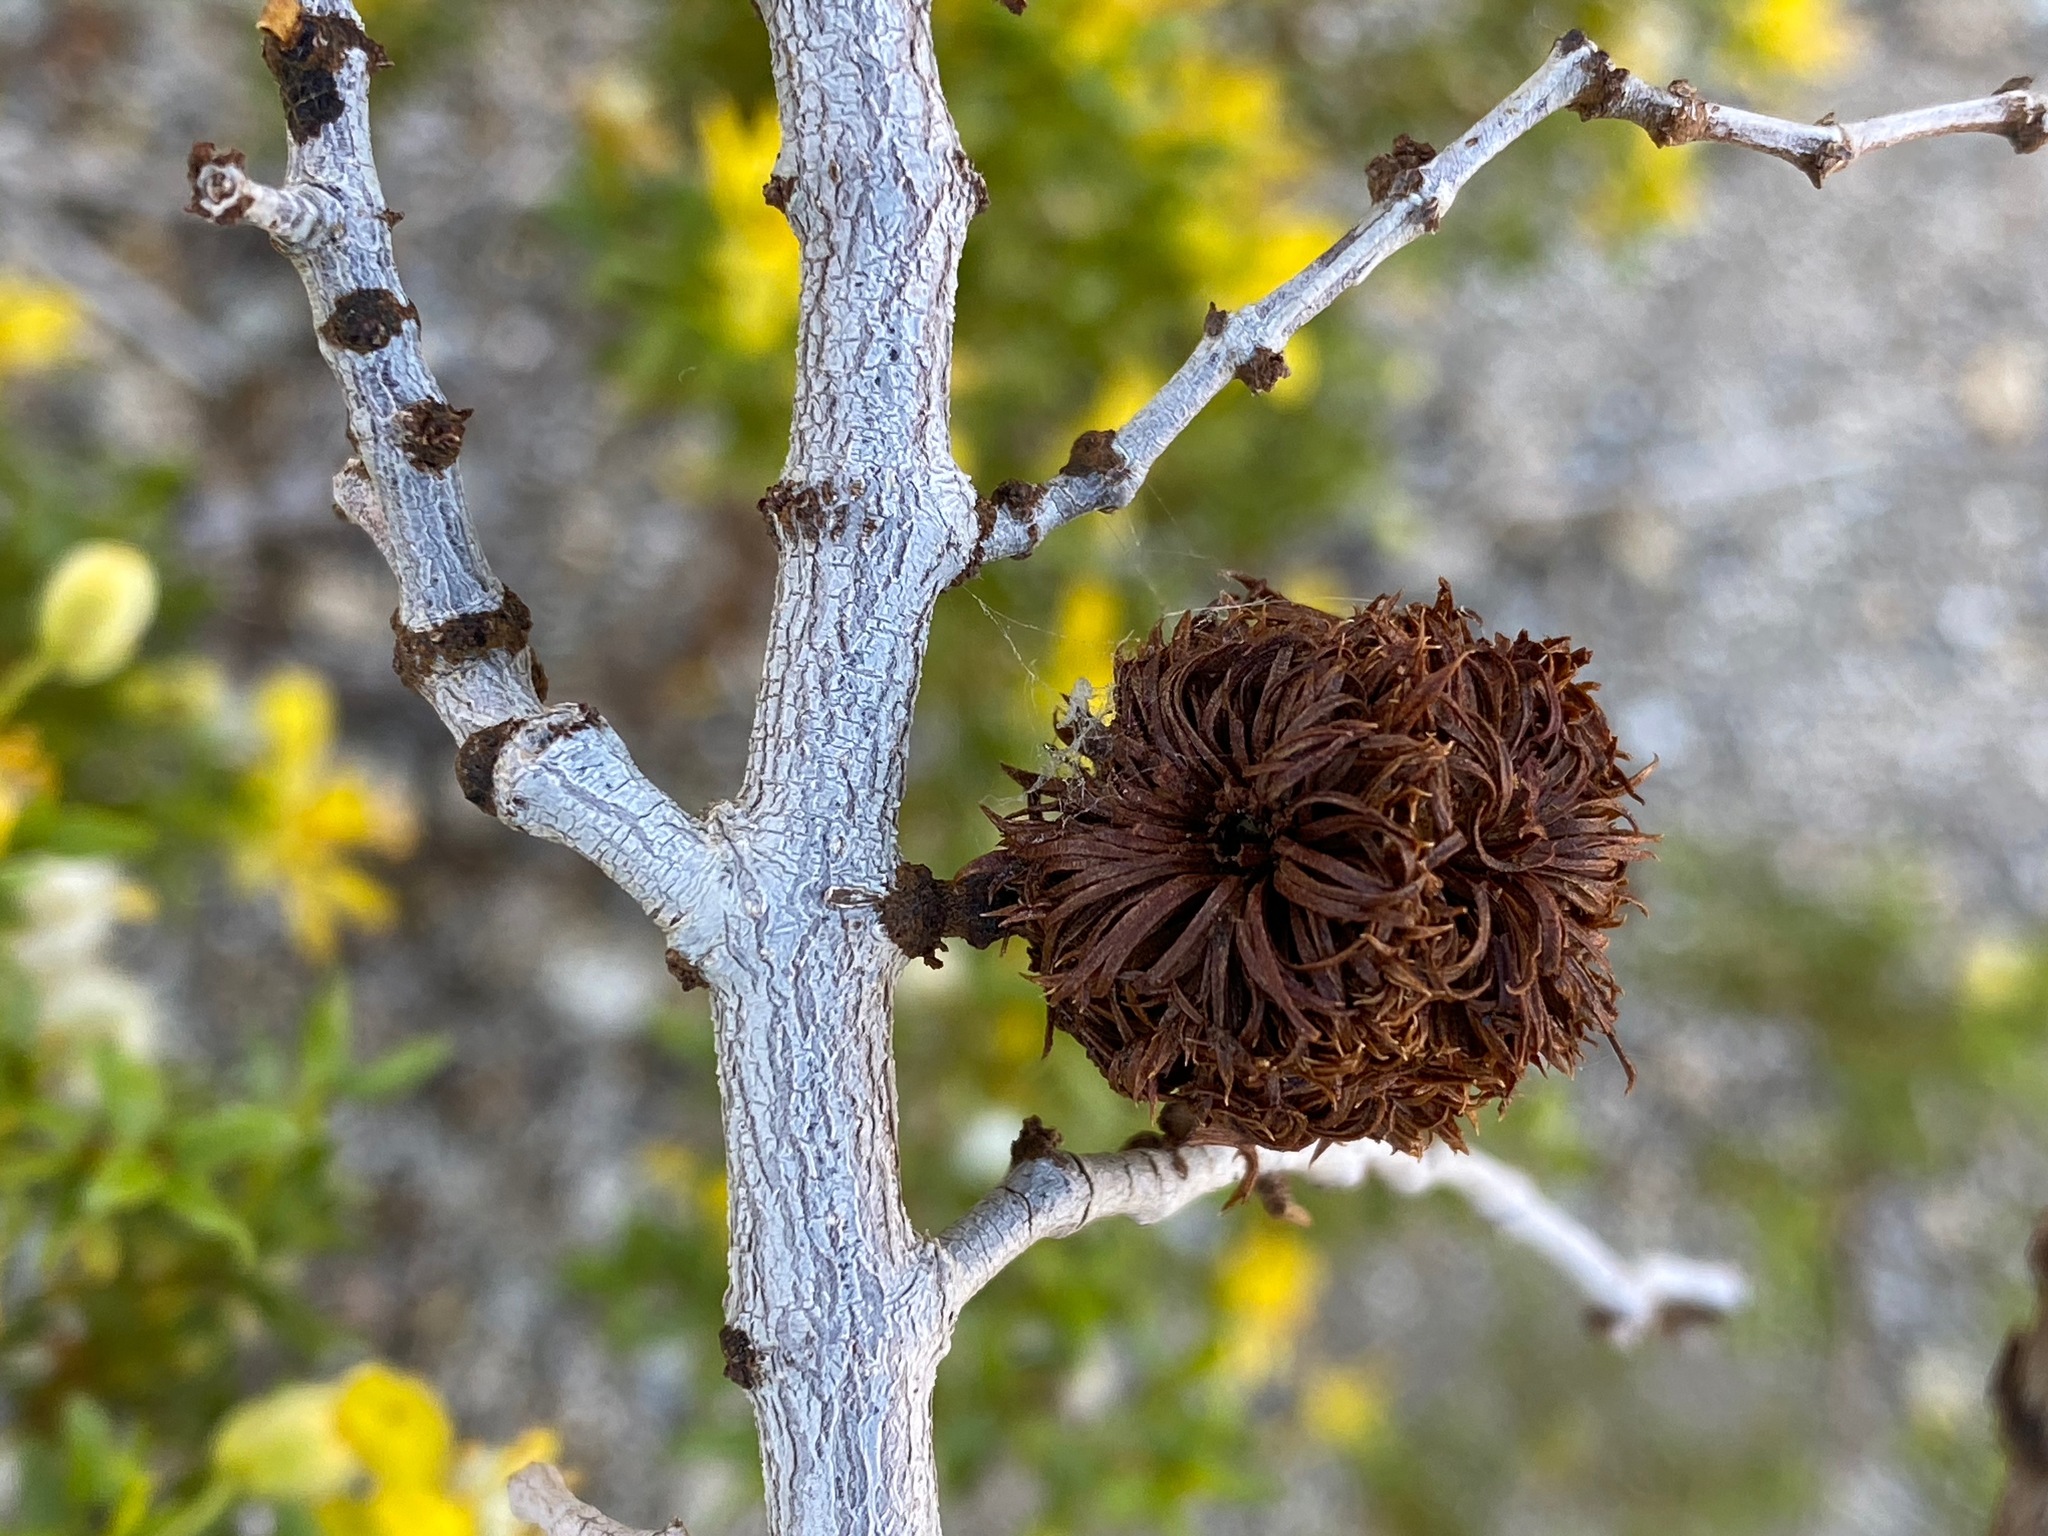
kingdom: Animalia
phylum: Arthropoda
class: Insecta
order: Diptera
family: Cecidomyiidae
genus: Asphondylia
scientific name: Asphondylia auripila
